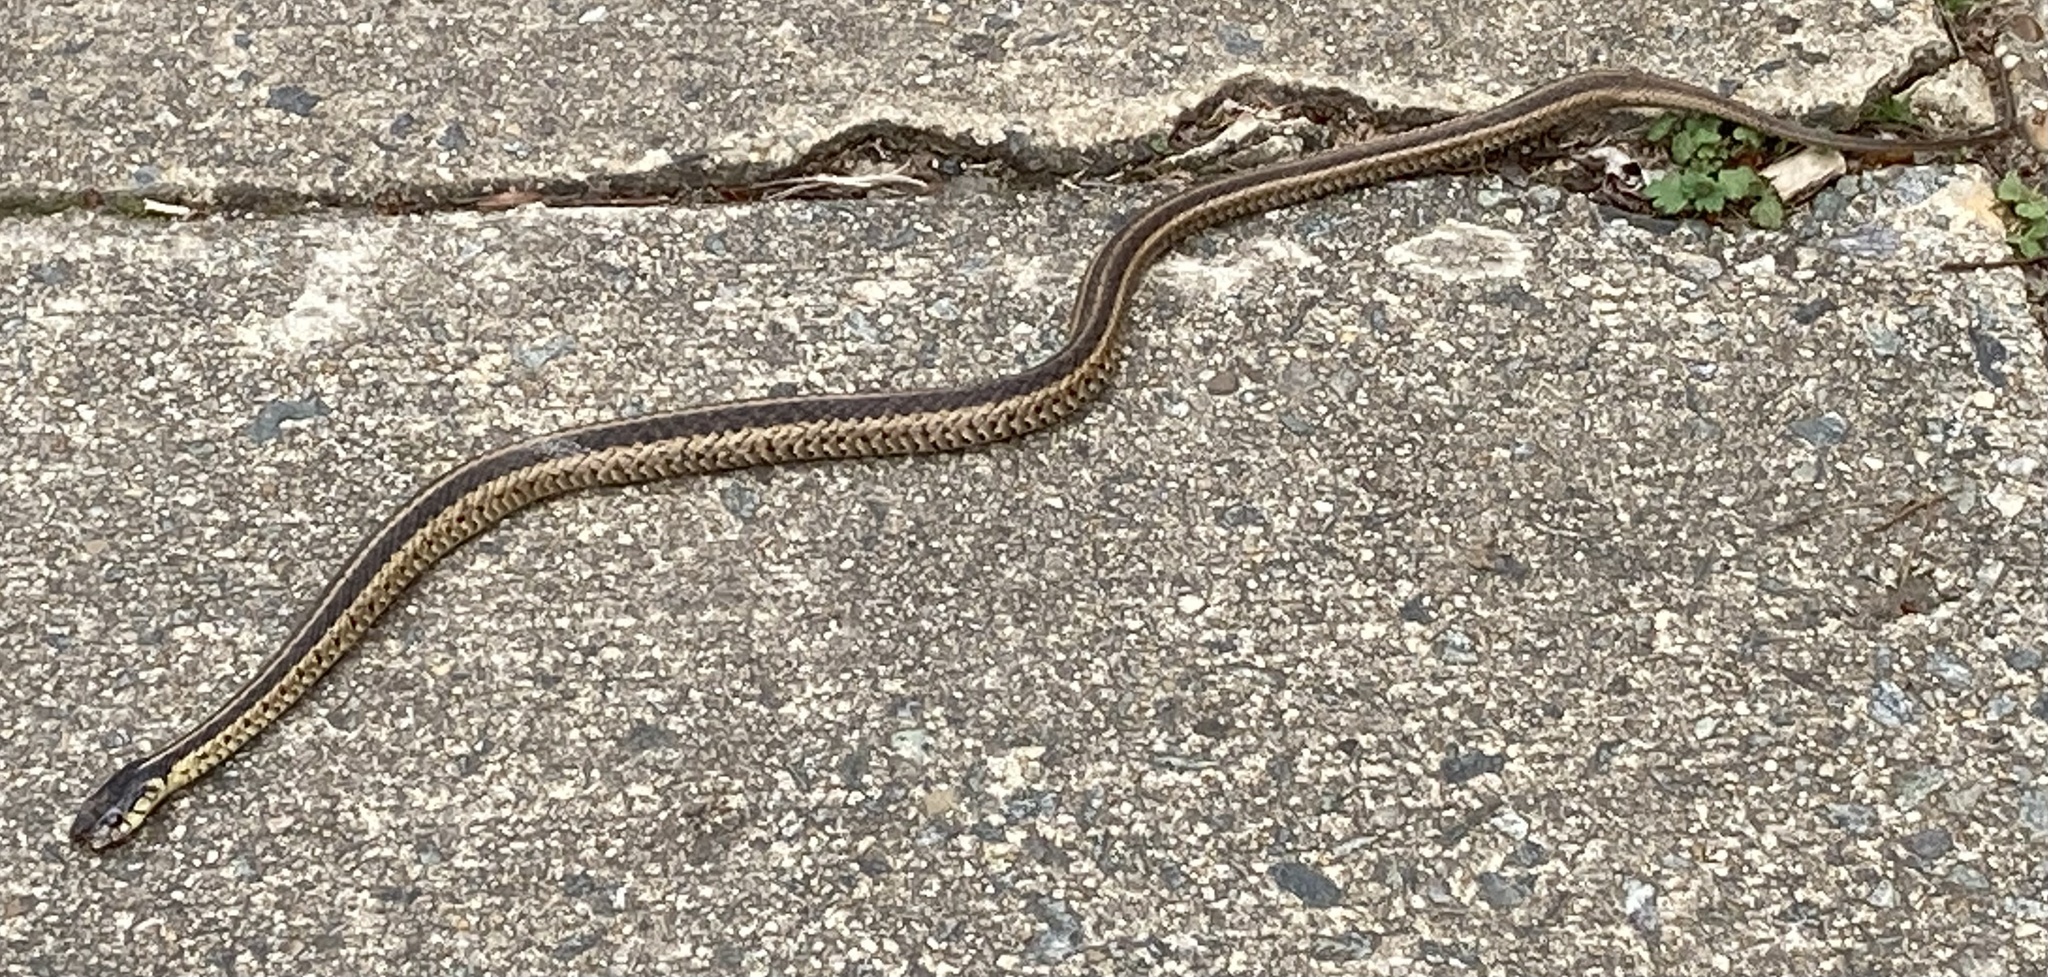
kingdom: Animalia
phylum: Chordata
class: Squamata
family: Colubridae
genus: Thamnophis
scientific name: Thamnophis sirtalis
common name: Common garter snake
